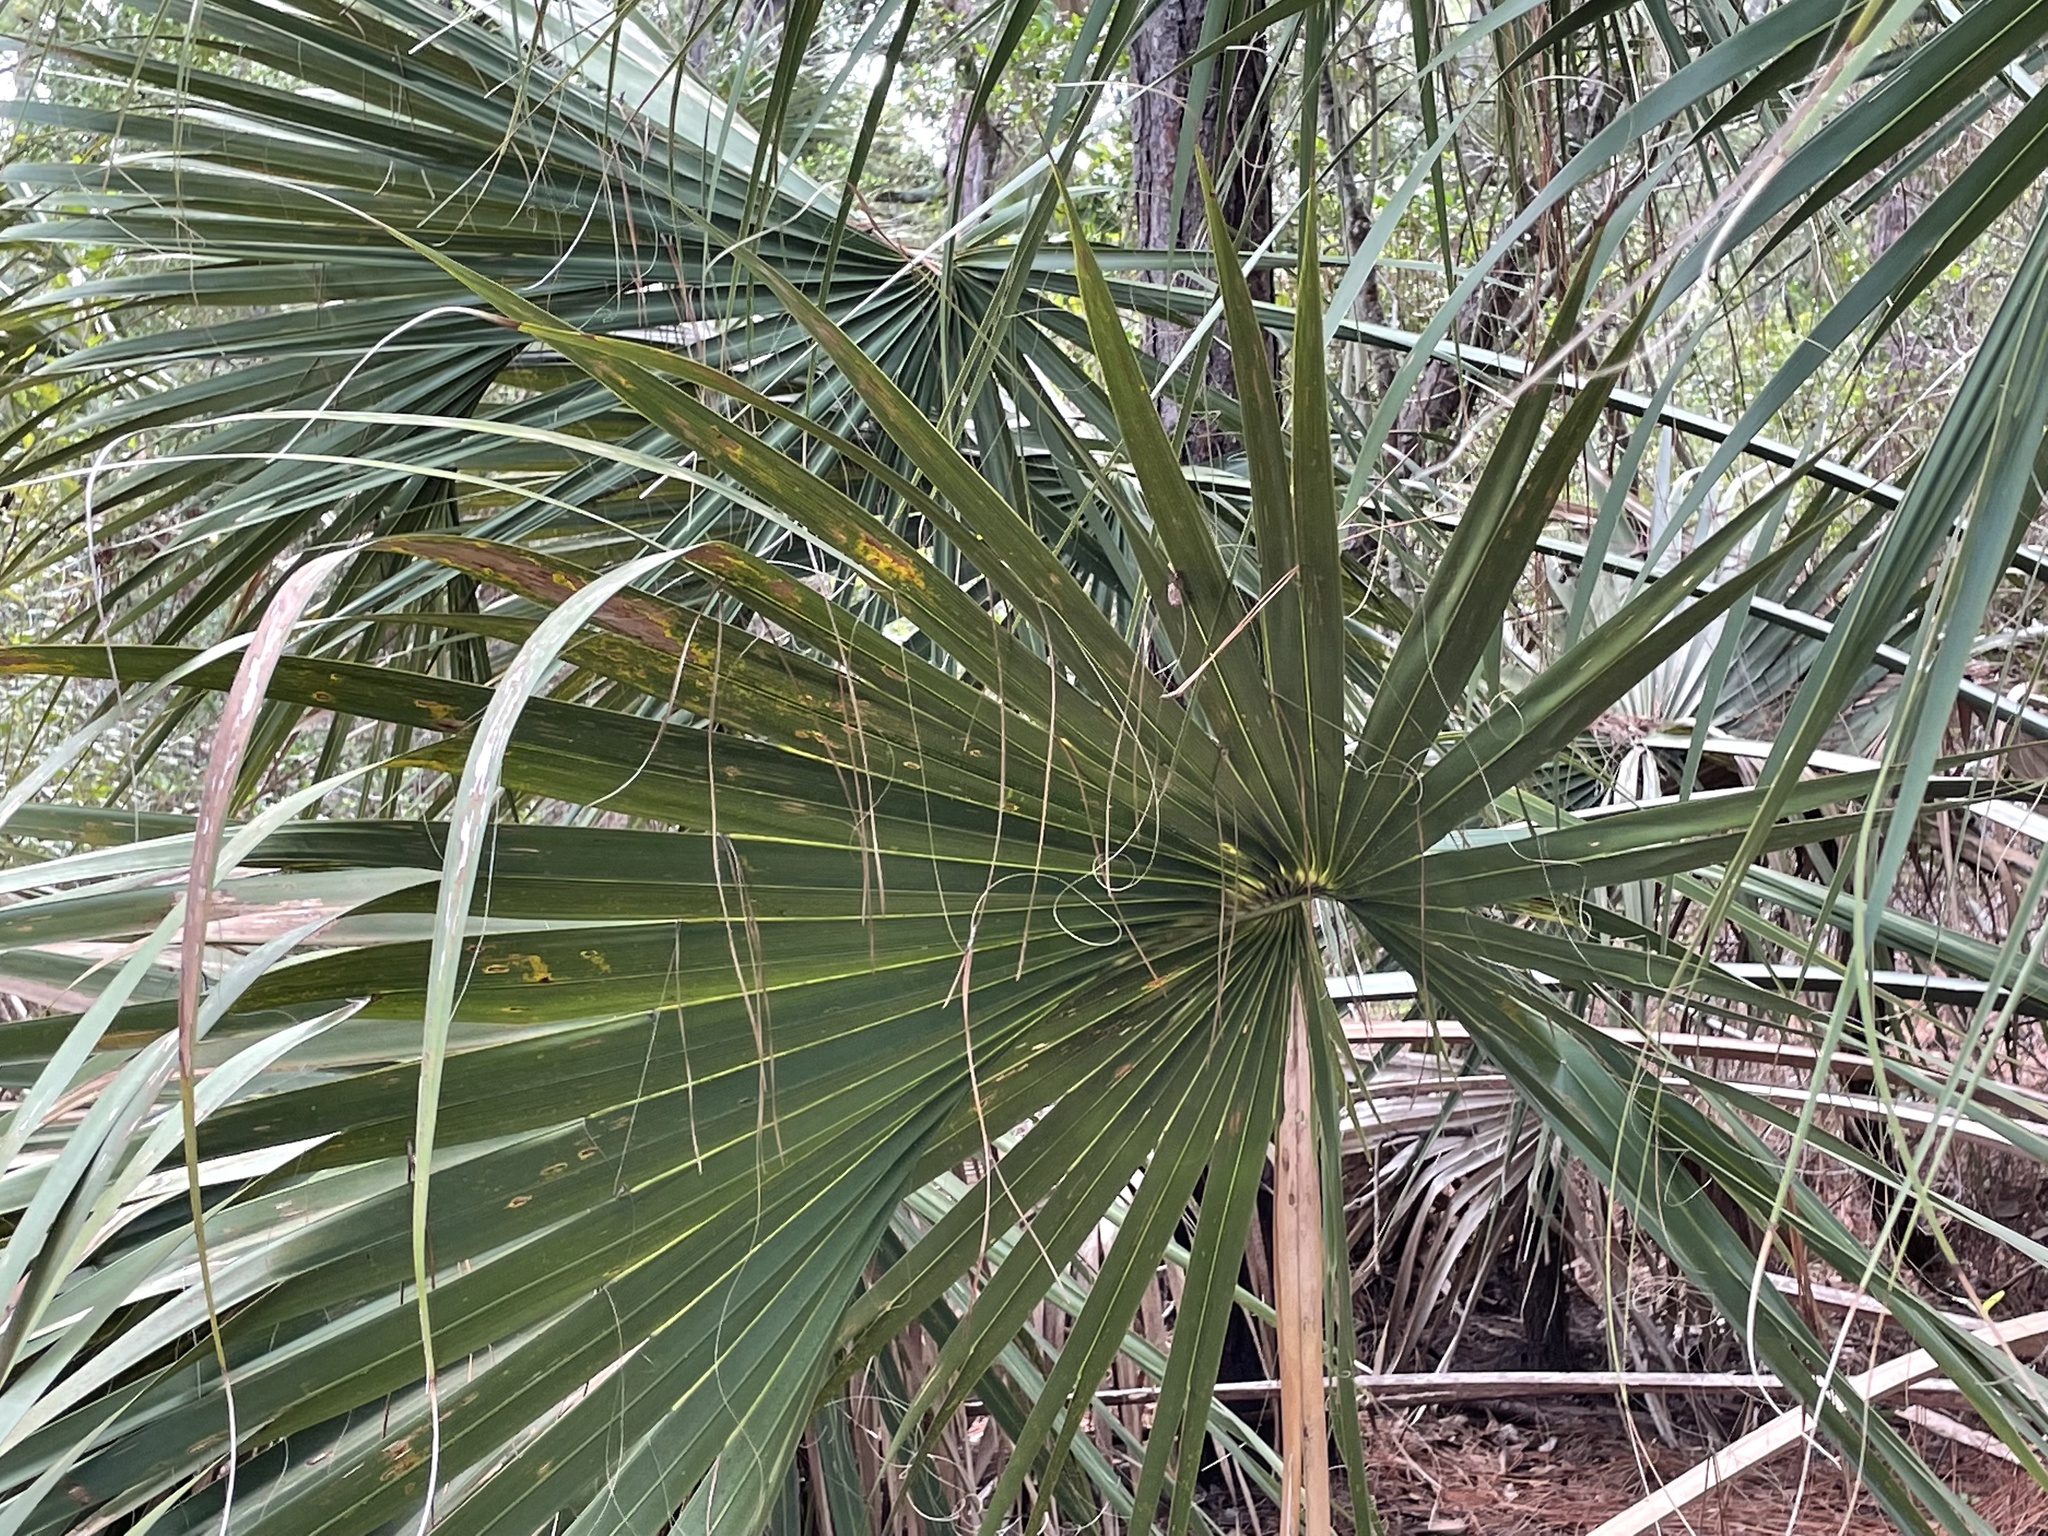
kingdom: Plantae
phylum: Tracheophyta
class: Liliopsida
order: Arecales
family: Arecaceae
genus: Sabal
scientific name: Sabal palmetto
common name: Blue palmetto
